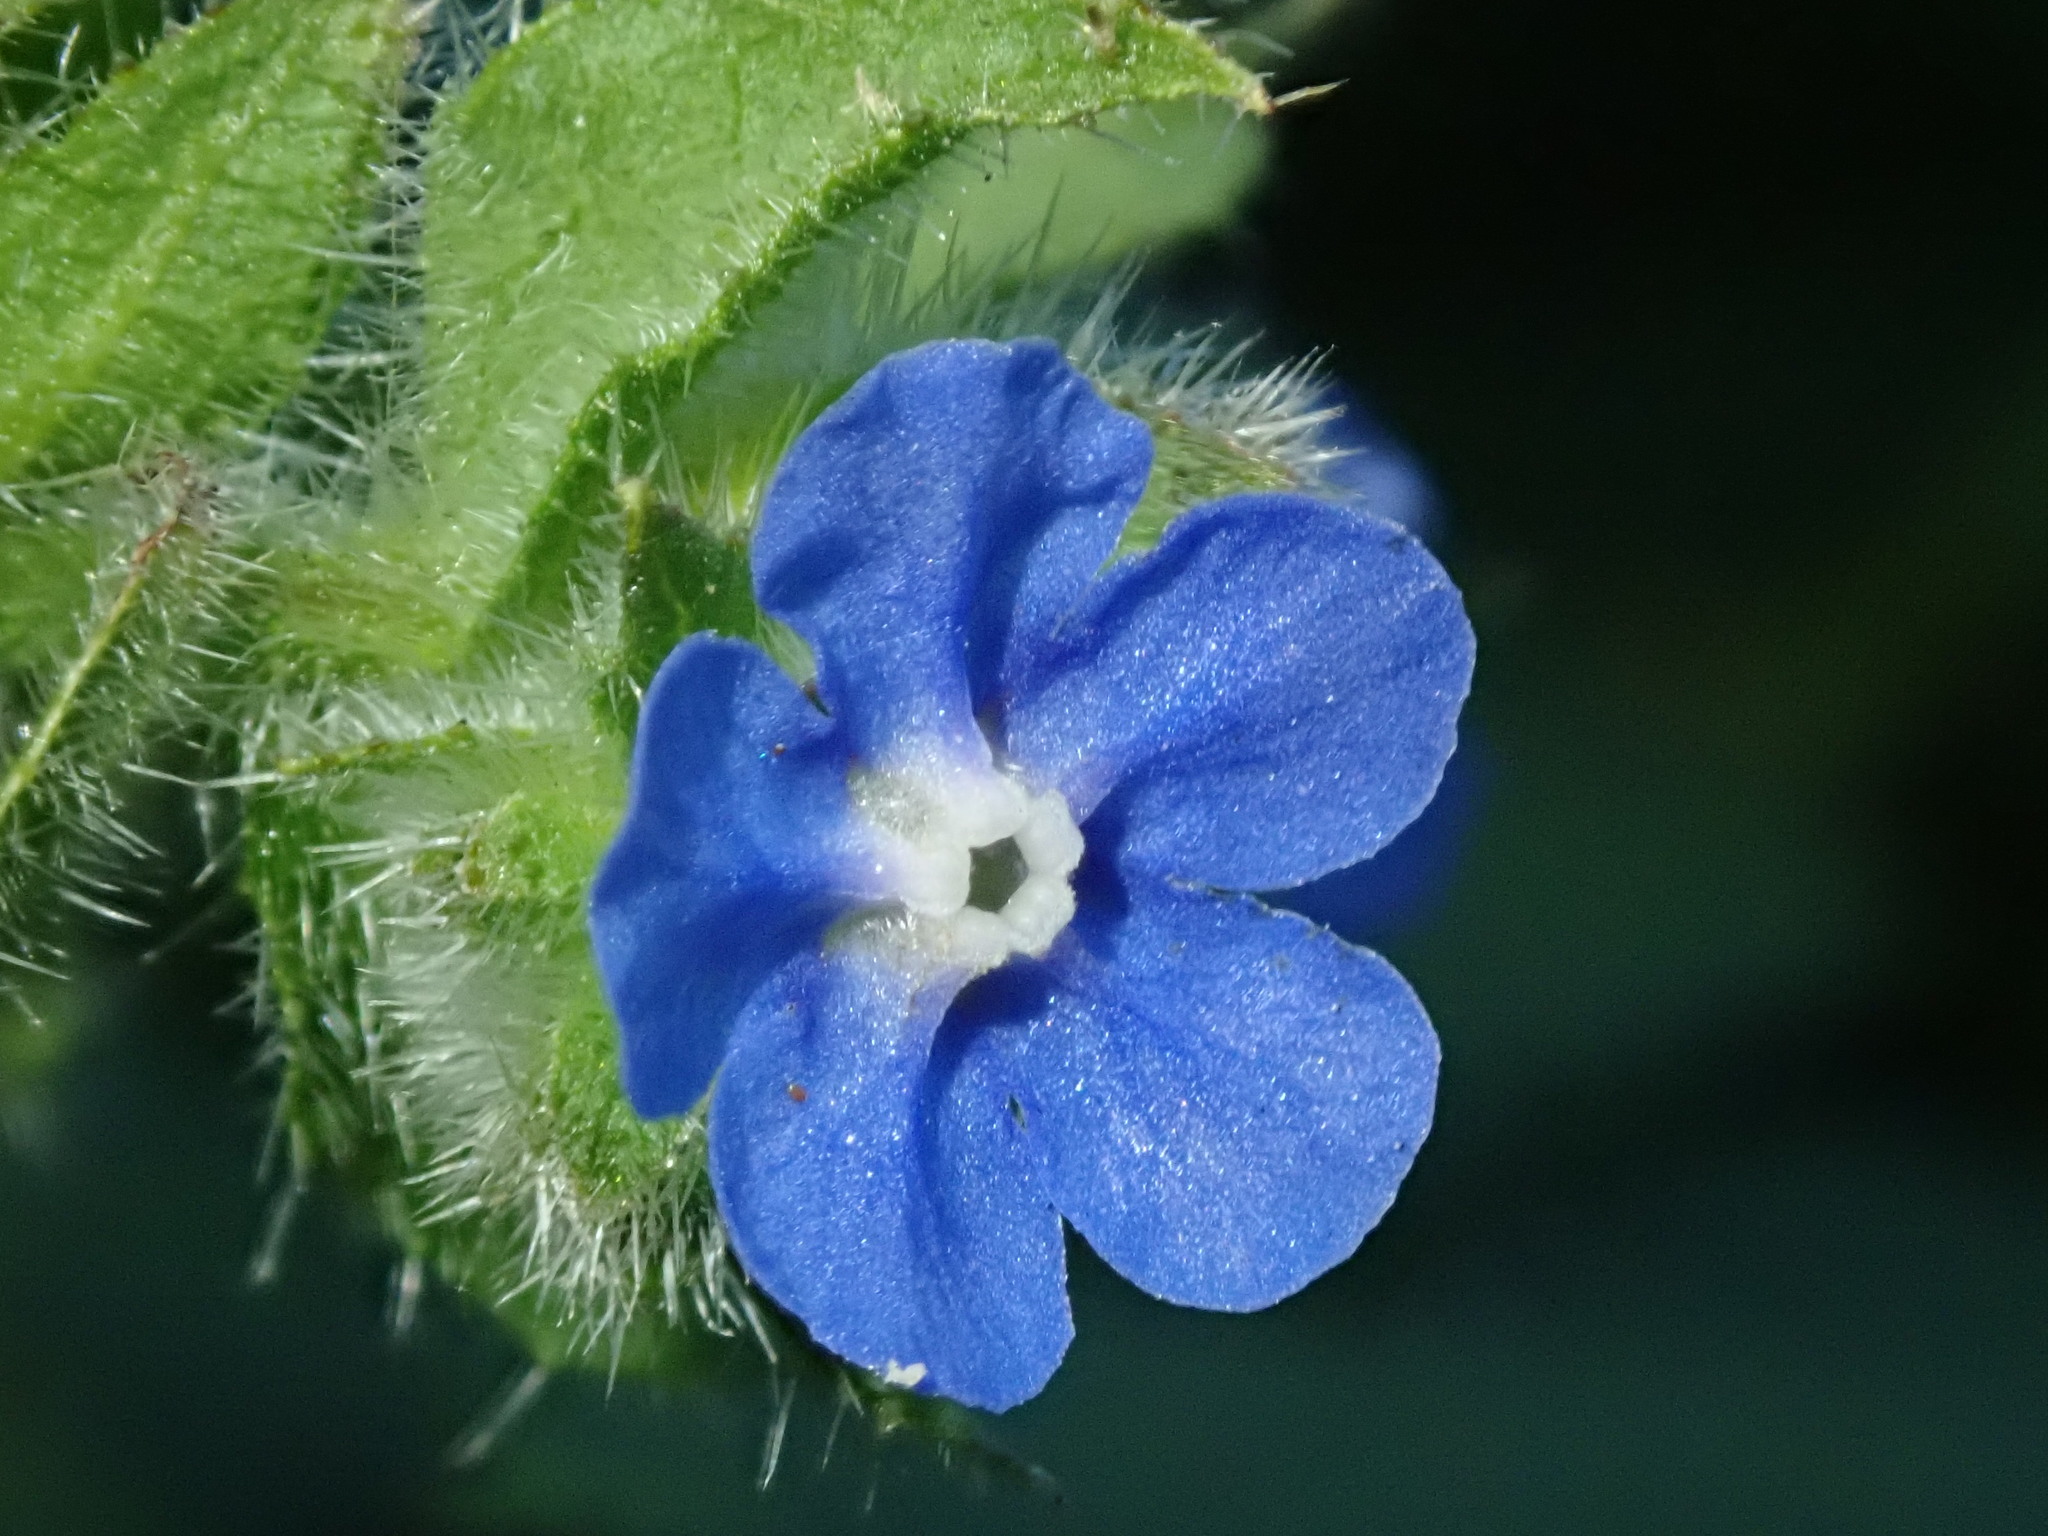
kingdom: Plantae
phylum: Tracheophyta
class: Magnoliopsida
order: Boraginales
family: Boraginaceae
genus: Pentaglottis
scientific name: Pentaglottis sempervirens
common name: Green alkanet
